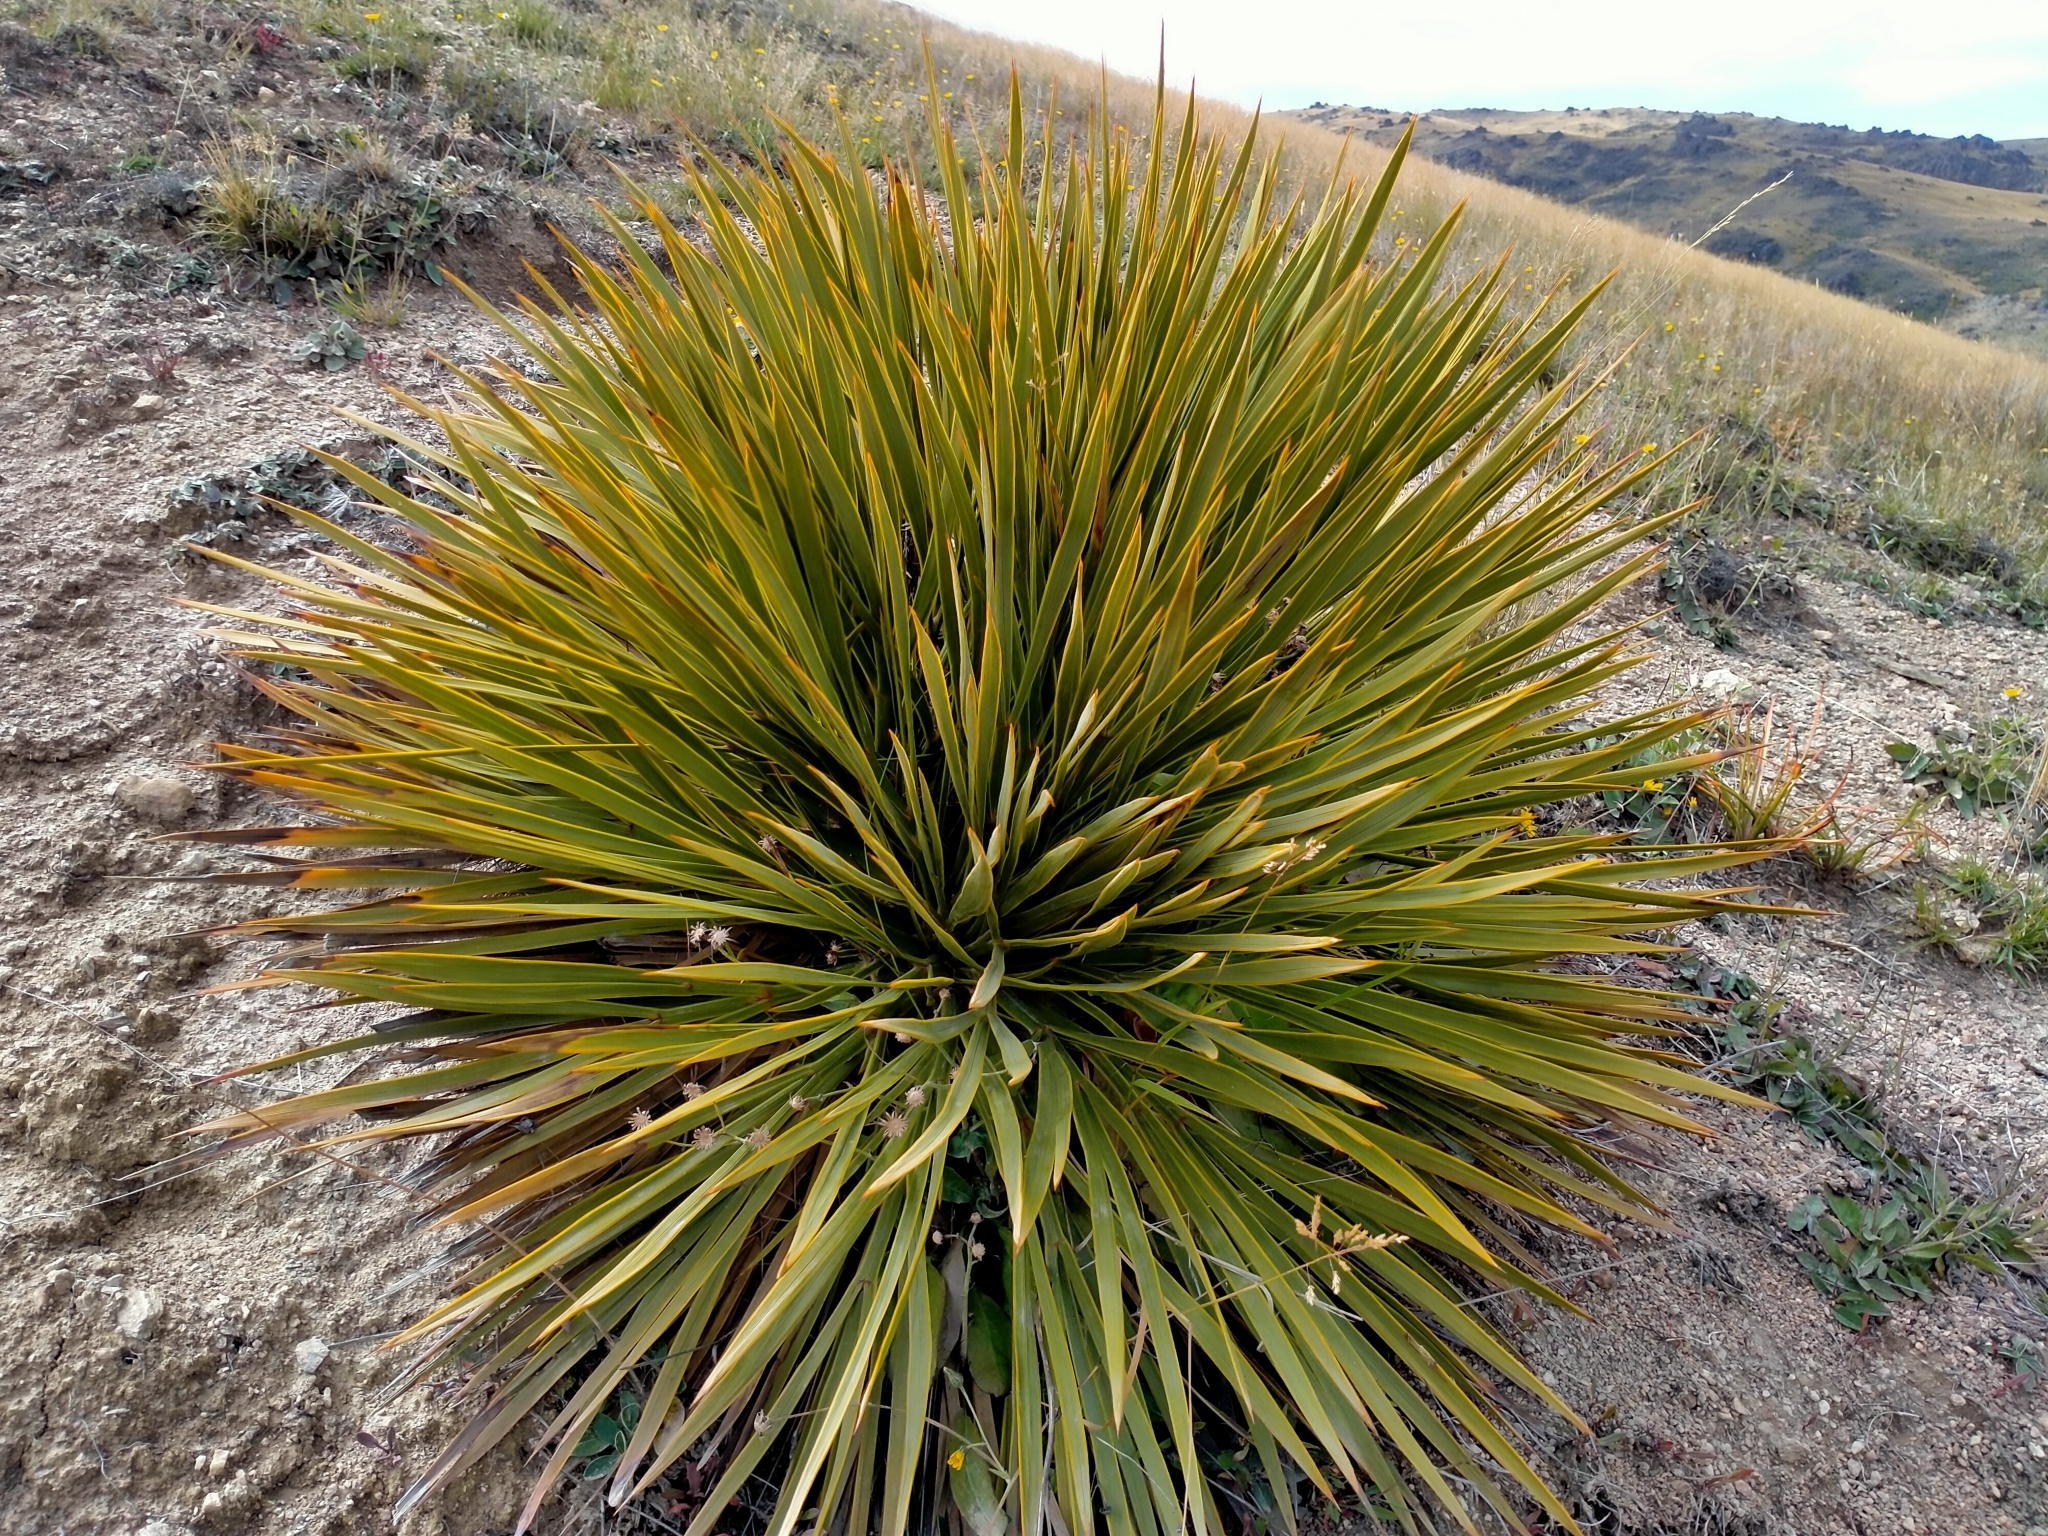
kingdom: Plantae
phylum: Tracheophyta
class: Magnoliopsida
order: Apiales
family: Apiaceae
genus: Aciphylla
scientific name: Aciphylla aurea
